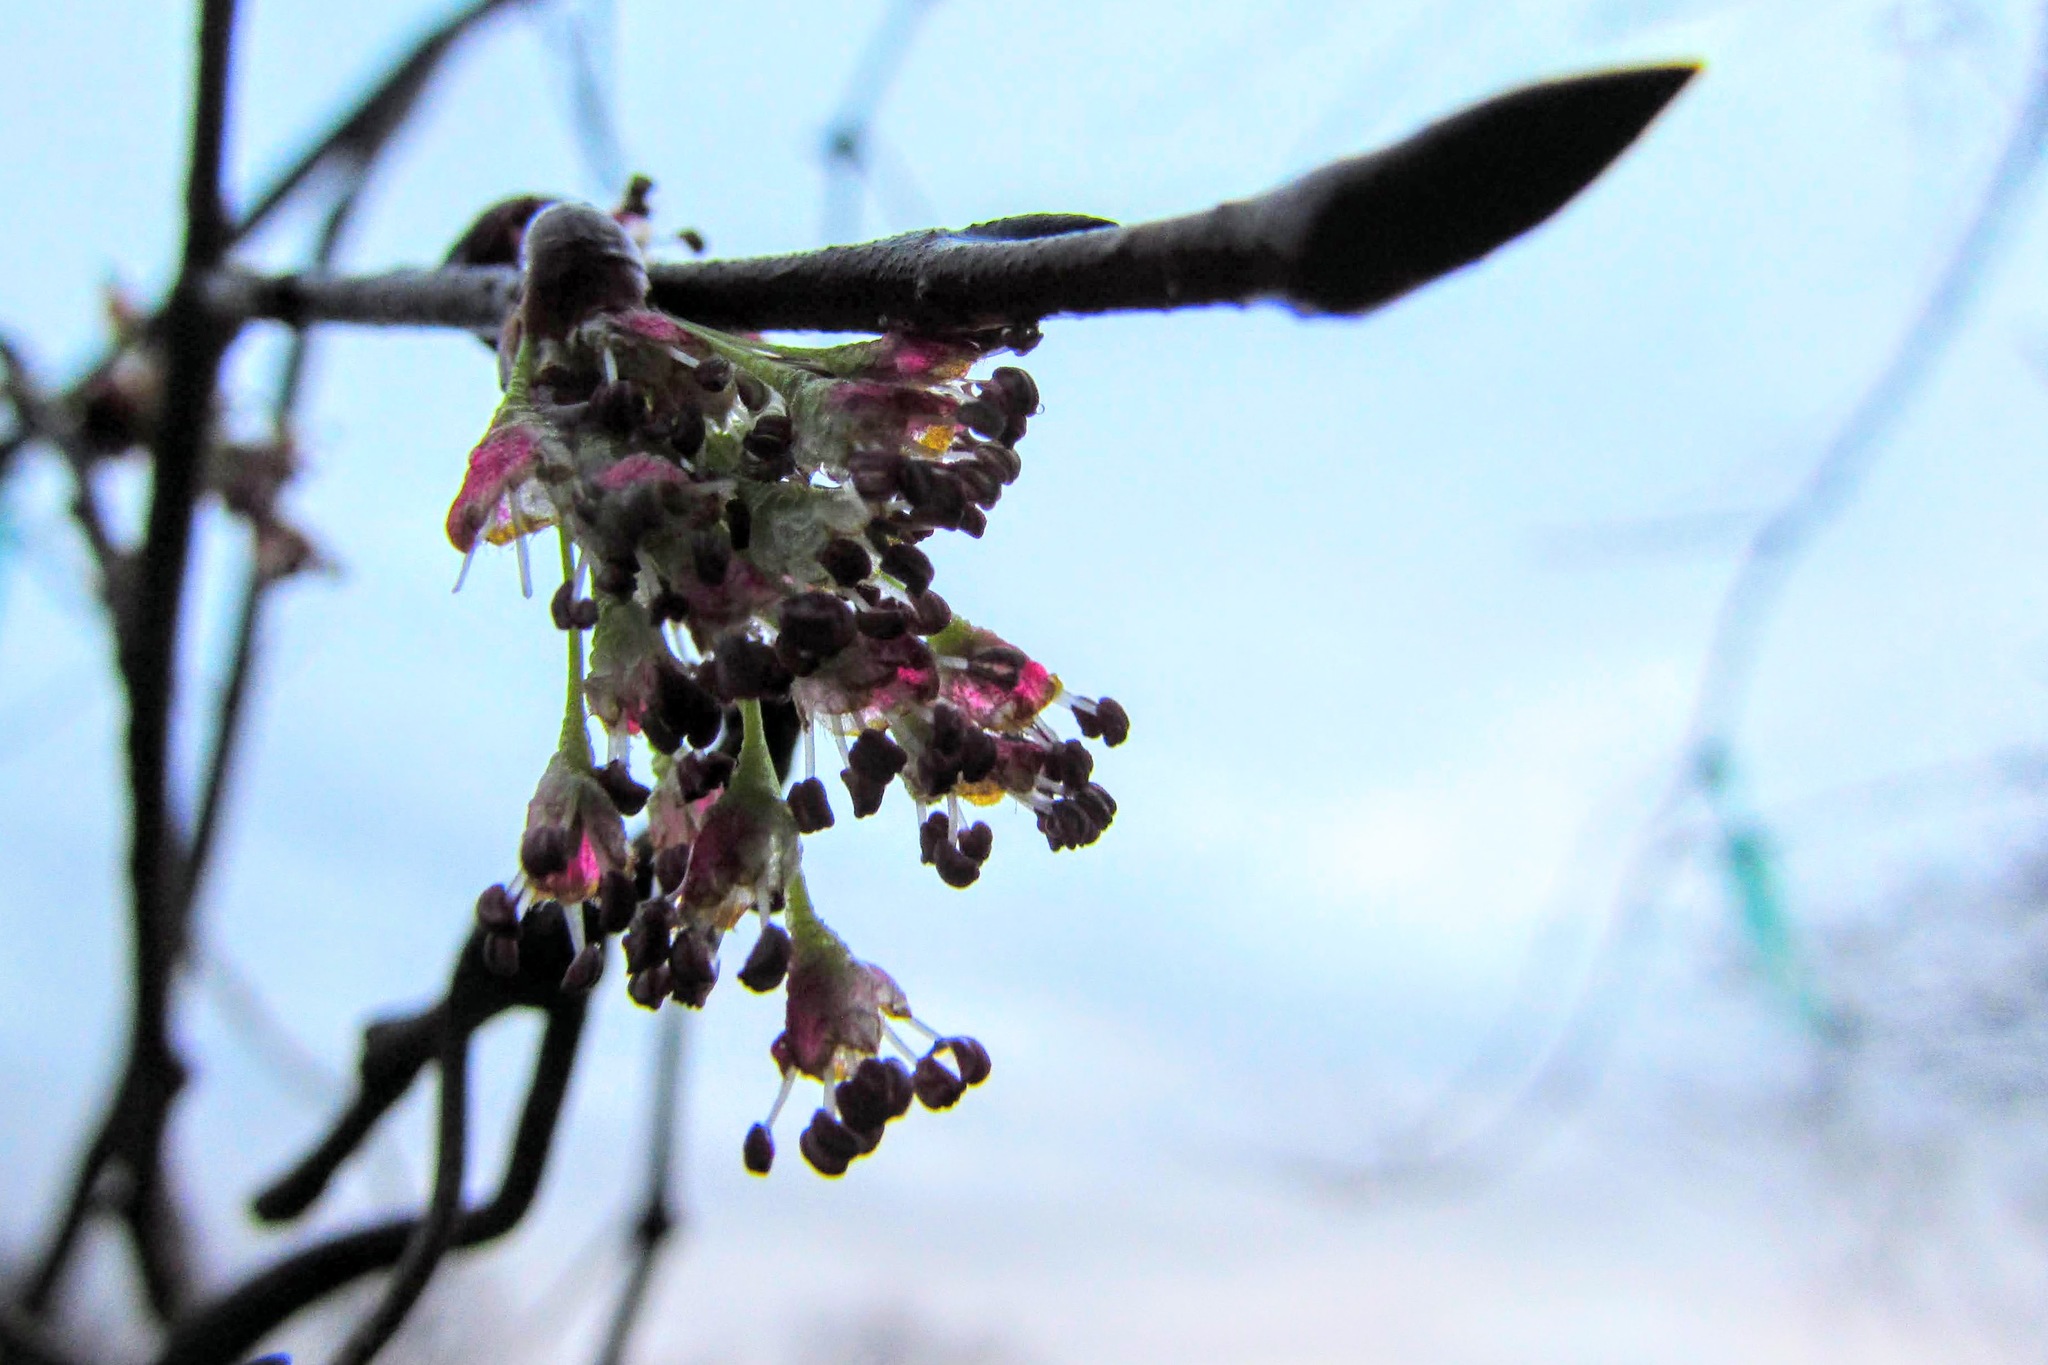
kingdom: Plantae
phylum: Tracheophyta
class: Magnoliopsida
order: Rosales
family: Ulmaceae
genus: Ulmus
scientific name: Ulmus americana
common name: American elm
